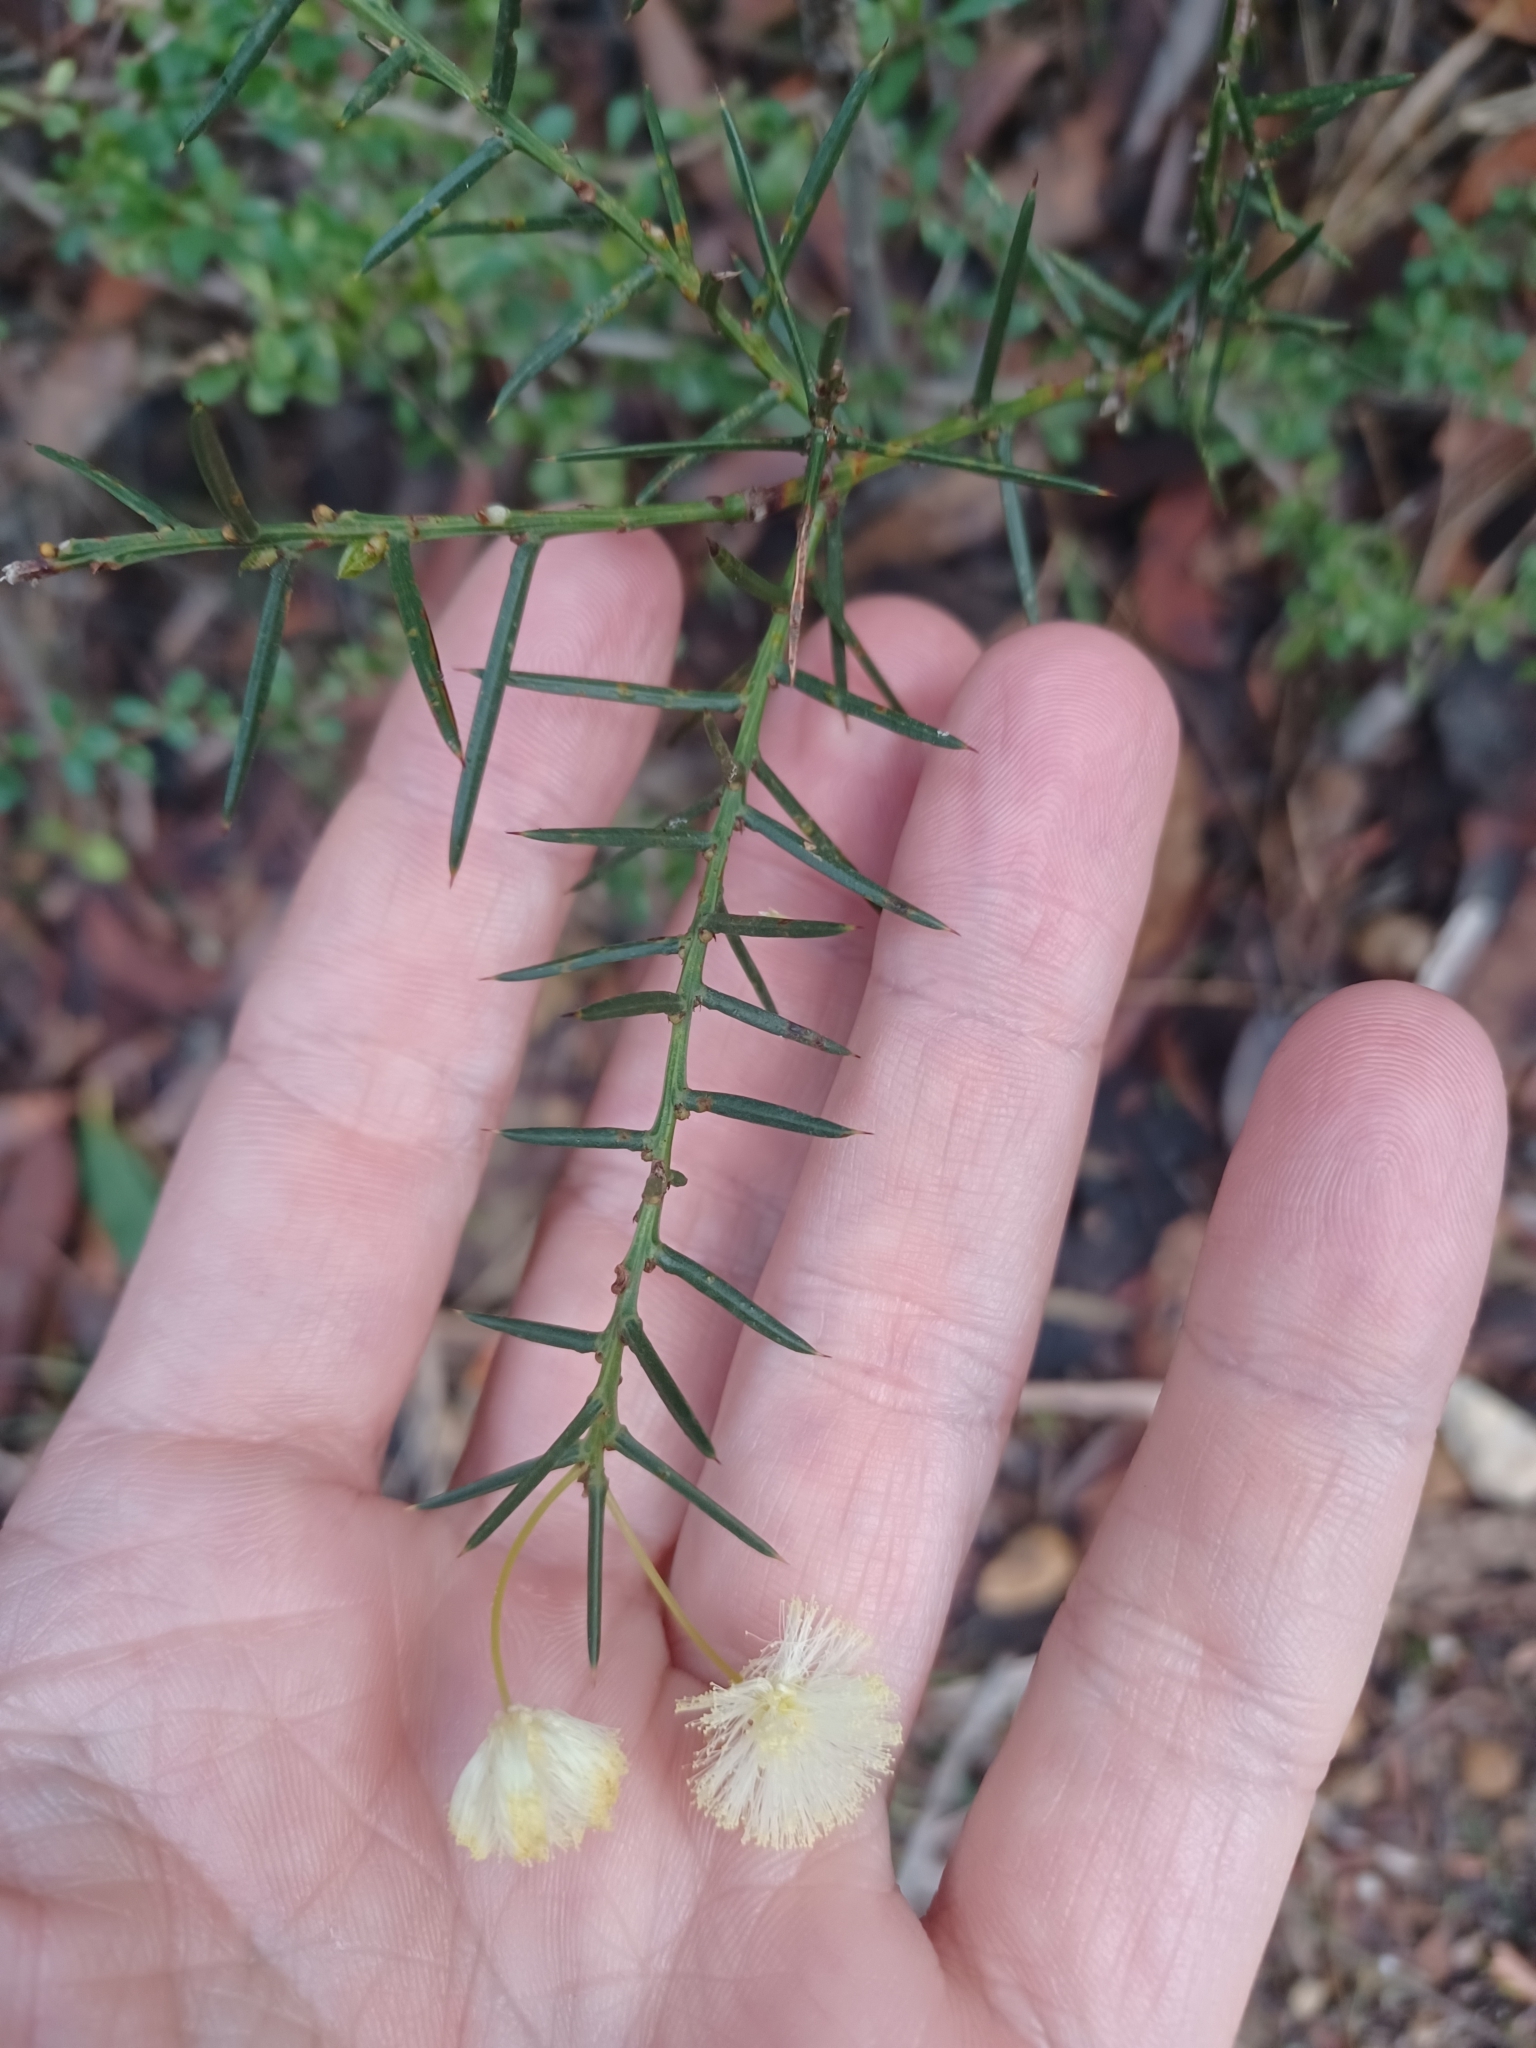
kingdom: Plantae
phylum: Tracheophyta
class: Magnoliopsida
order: Fabales
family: Fabaceae
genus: Acacia
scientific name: Acacia genistifolia
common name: Early wattle
